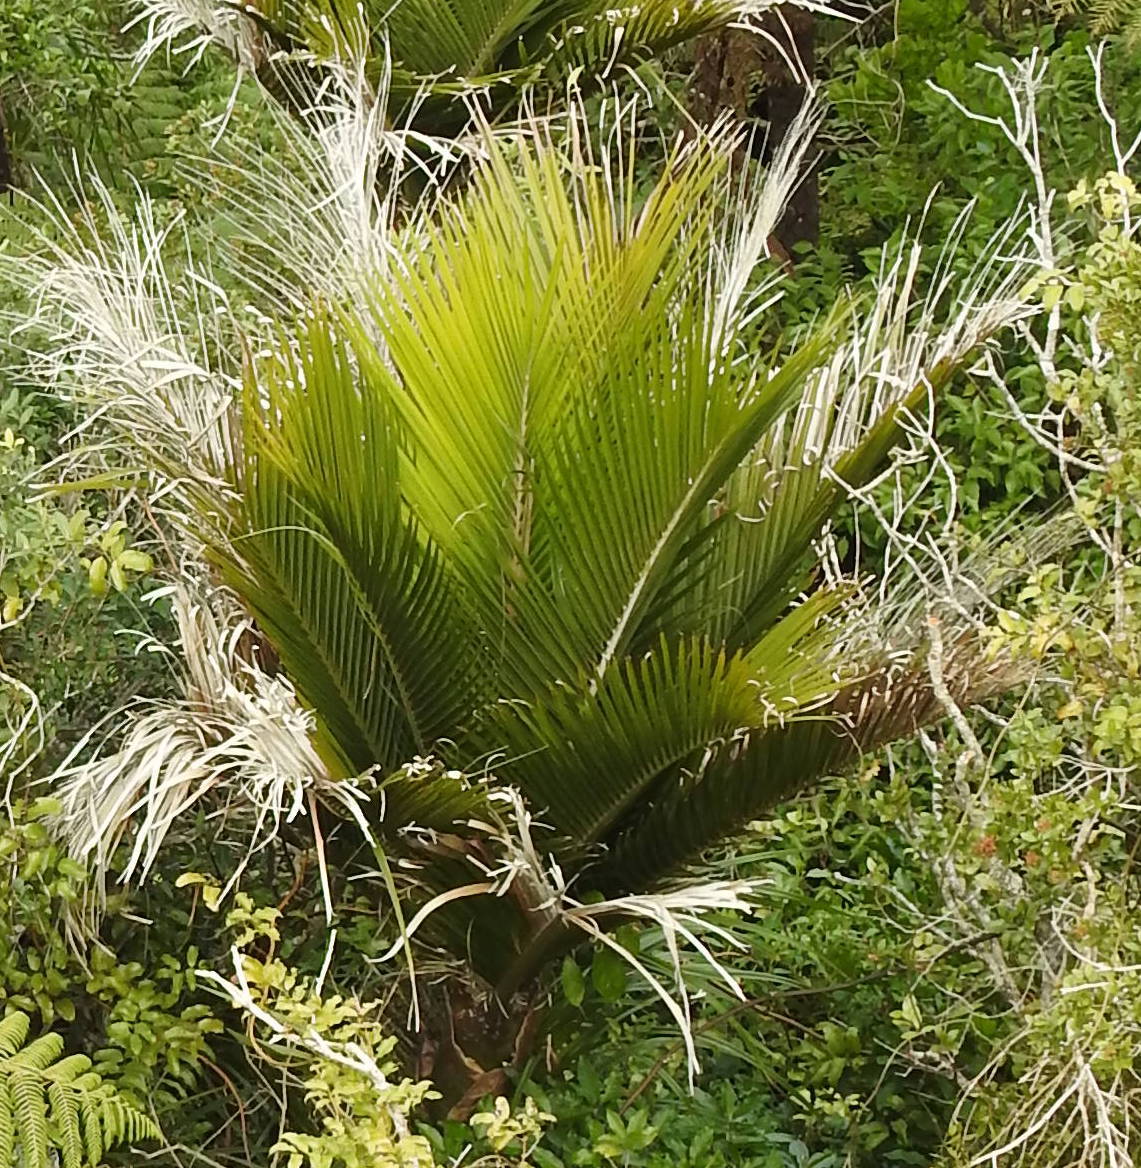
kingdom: Plantae
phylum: Tracheophyta
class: Liliopsida
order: Arecales
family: Arecaceae
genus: Rhopalostylis
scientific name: Rhopalostylis sapida
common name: Feather-duster palm
